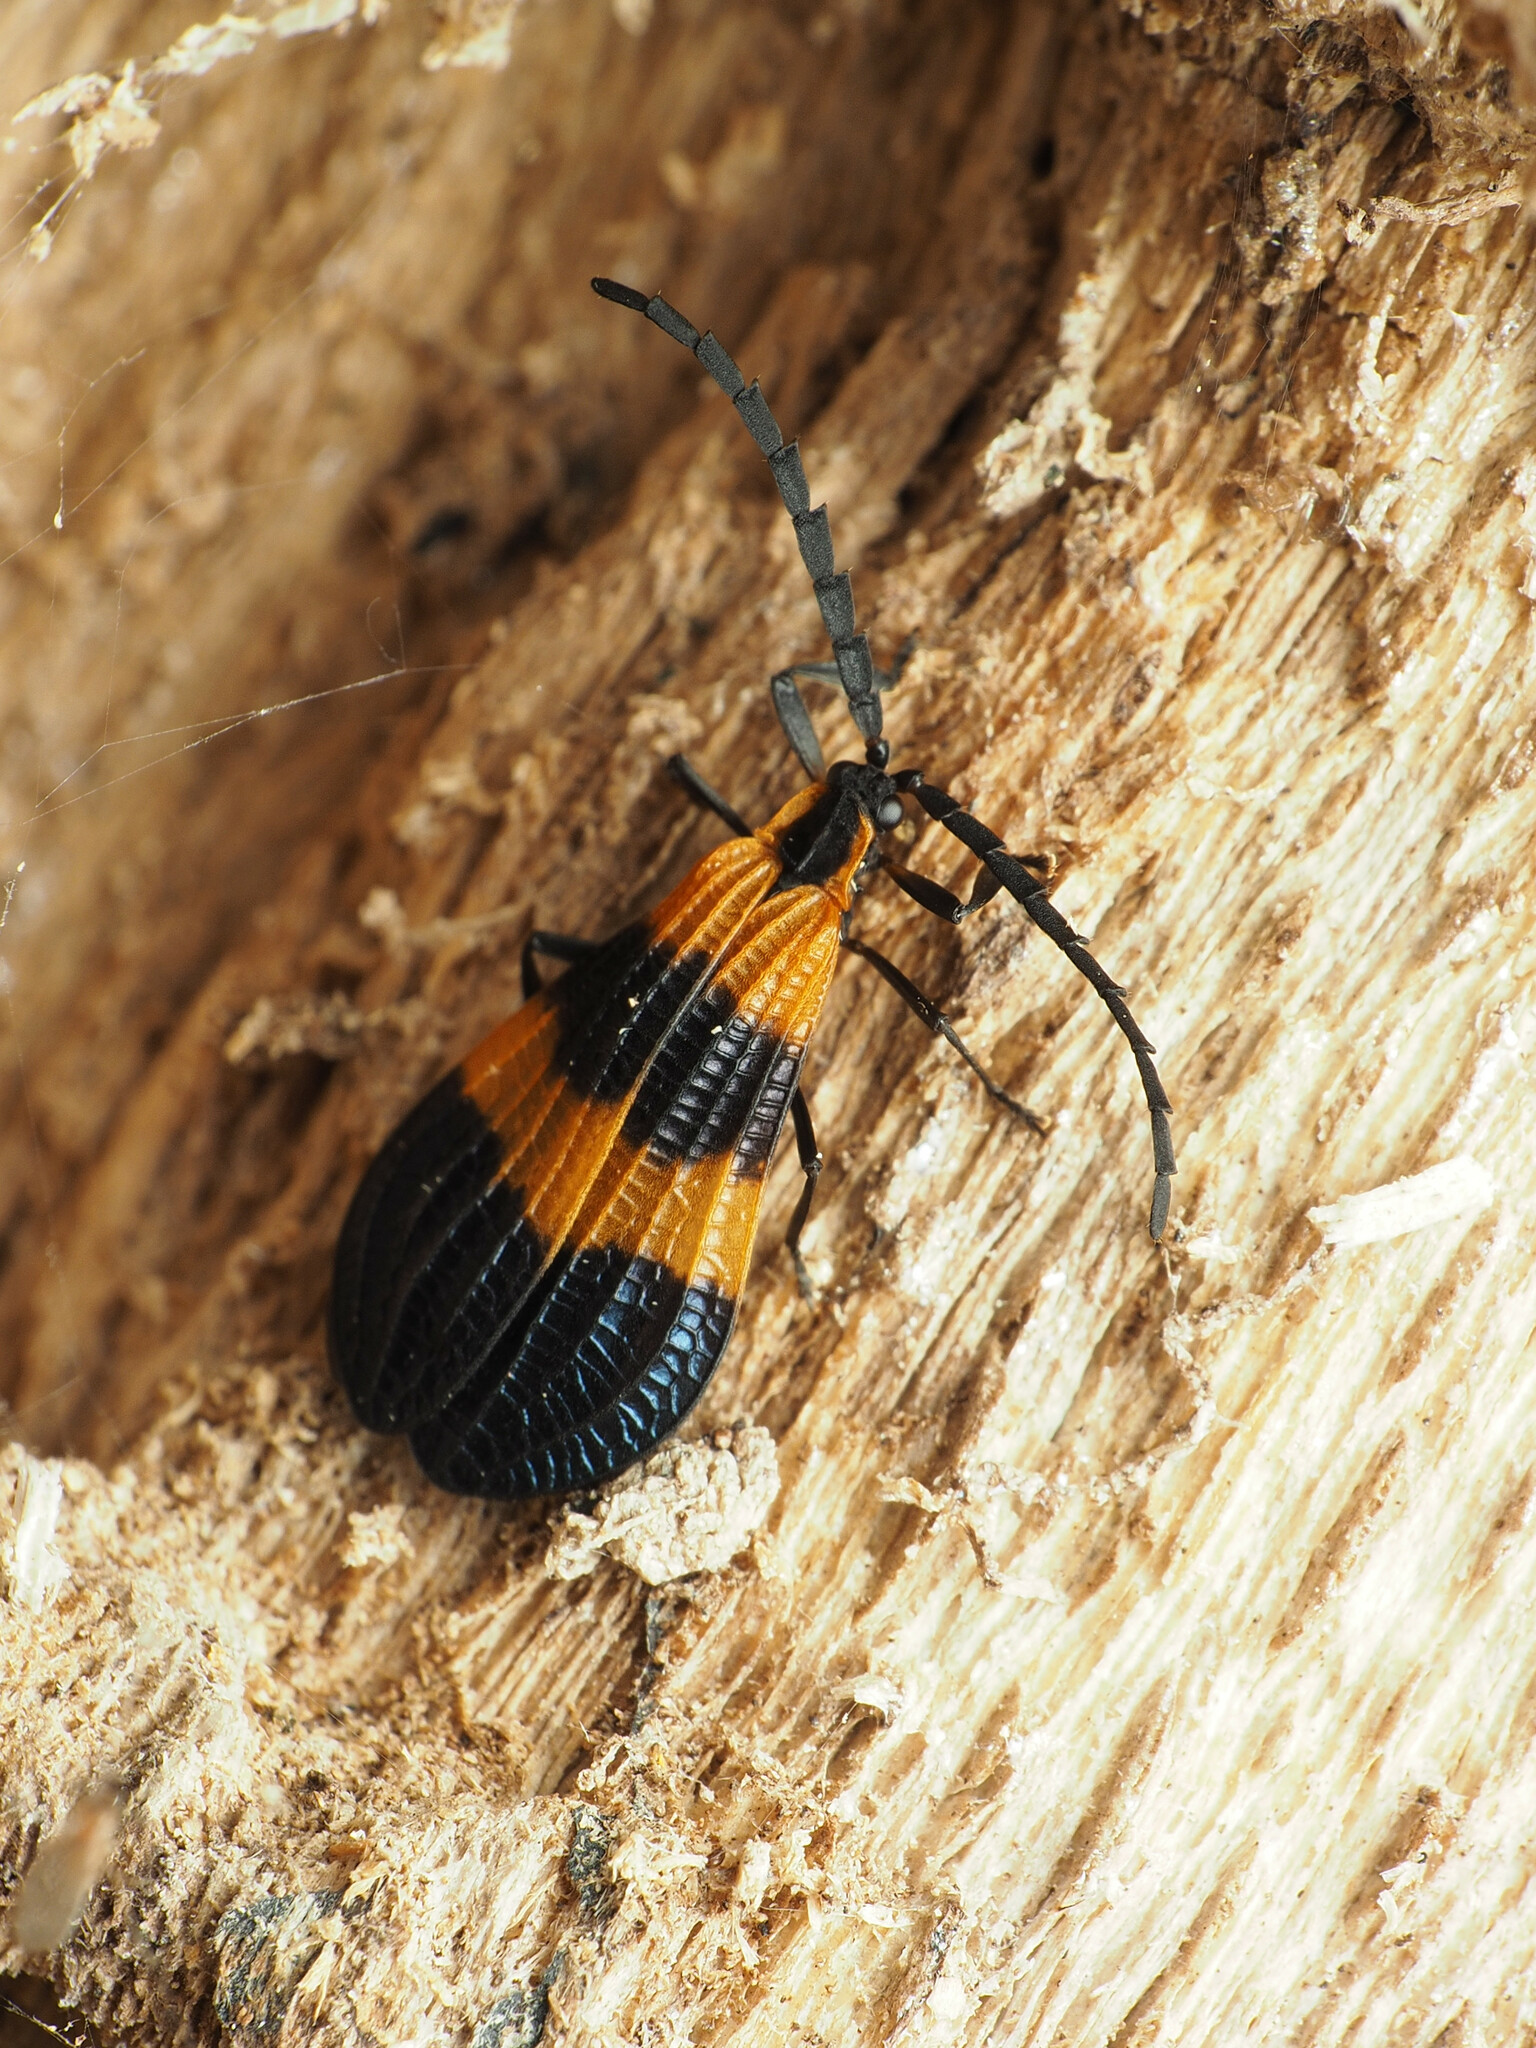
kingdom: Animalia
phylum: Arthropoda
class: Insecta
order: Coleoptera
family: Lycidae
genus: Calopteron
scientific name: Calopteron terminale
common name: End band net-winged beetle
